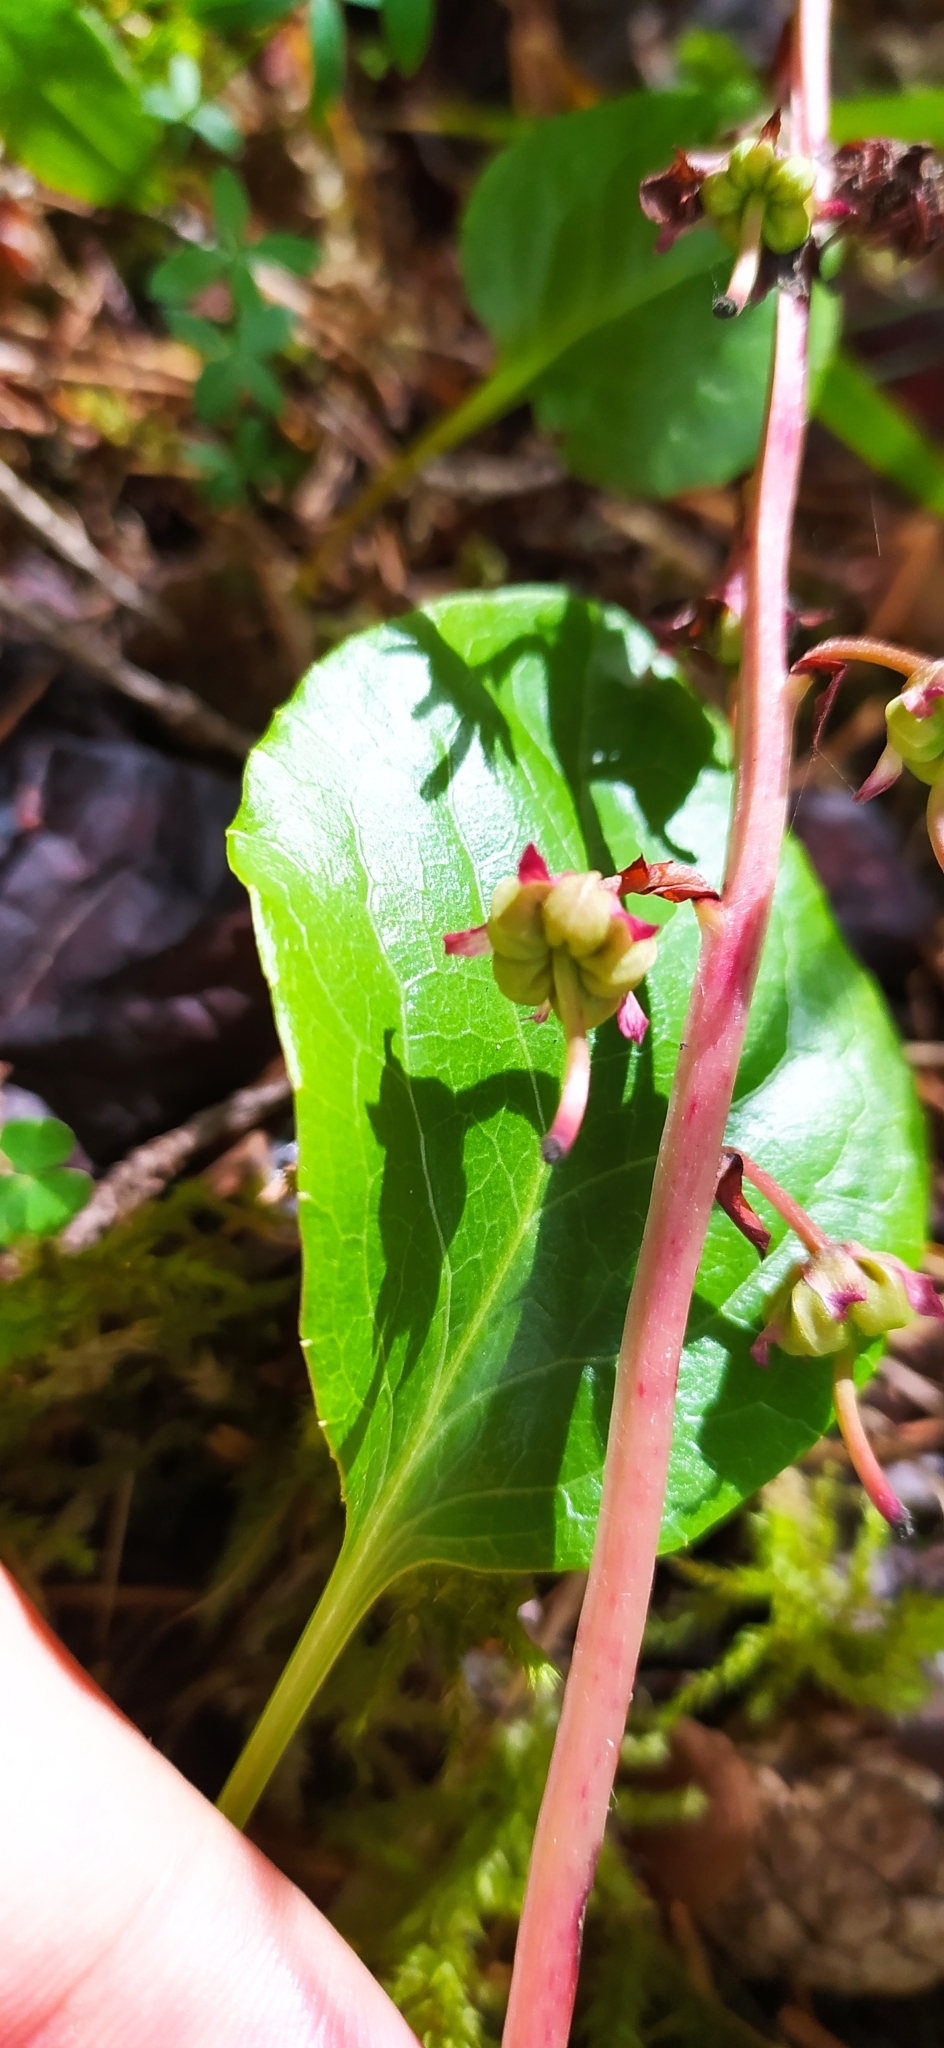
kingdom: Plantae
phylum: Tracheophyta
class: Magnoliopsida
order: Ericales
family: Ericaceae
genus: Pyrola
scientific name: Pyrola asarifolia
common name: Bog wintergreen
